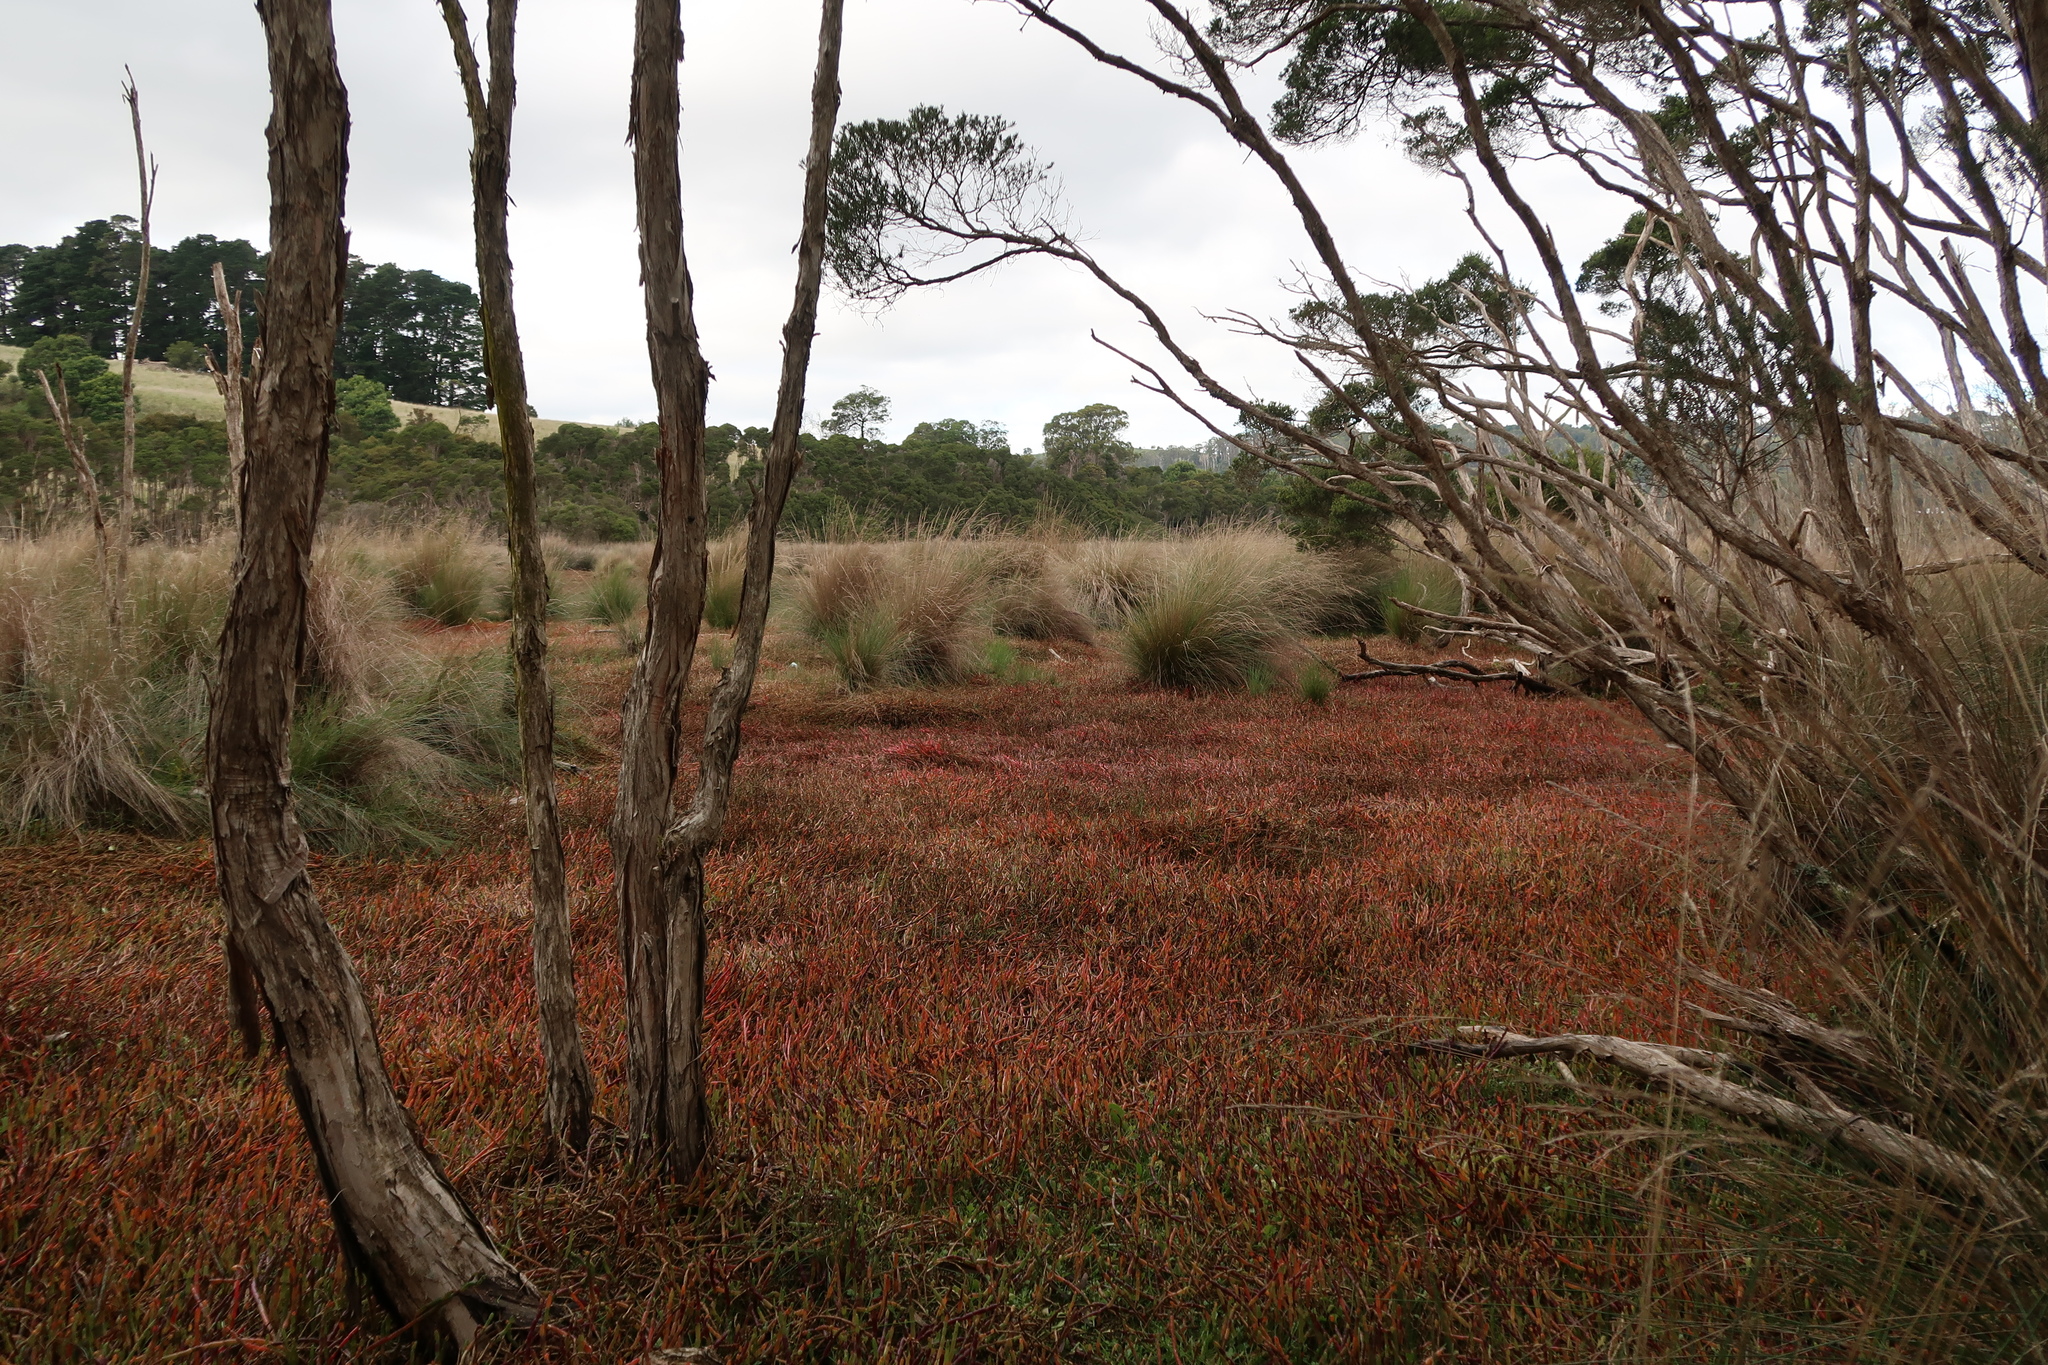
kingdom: Plantae
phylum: Tracheophyta
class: Magnoliopsida
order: Caryophyllales
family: Amaranthaceae
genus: Salicornia
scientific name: Salicornia quinqueflora
